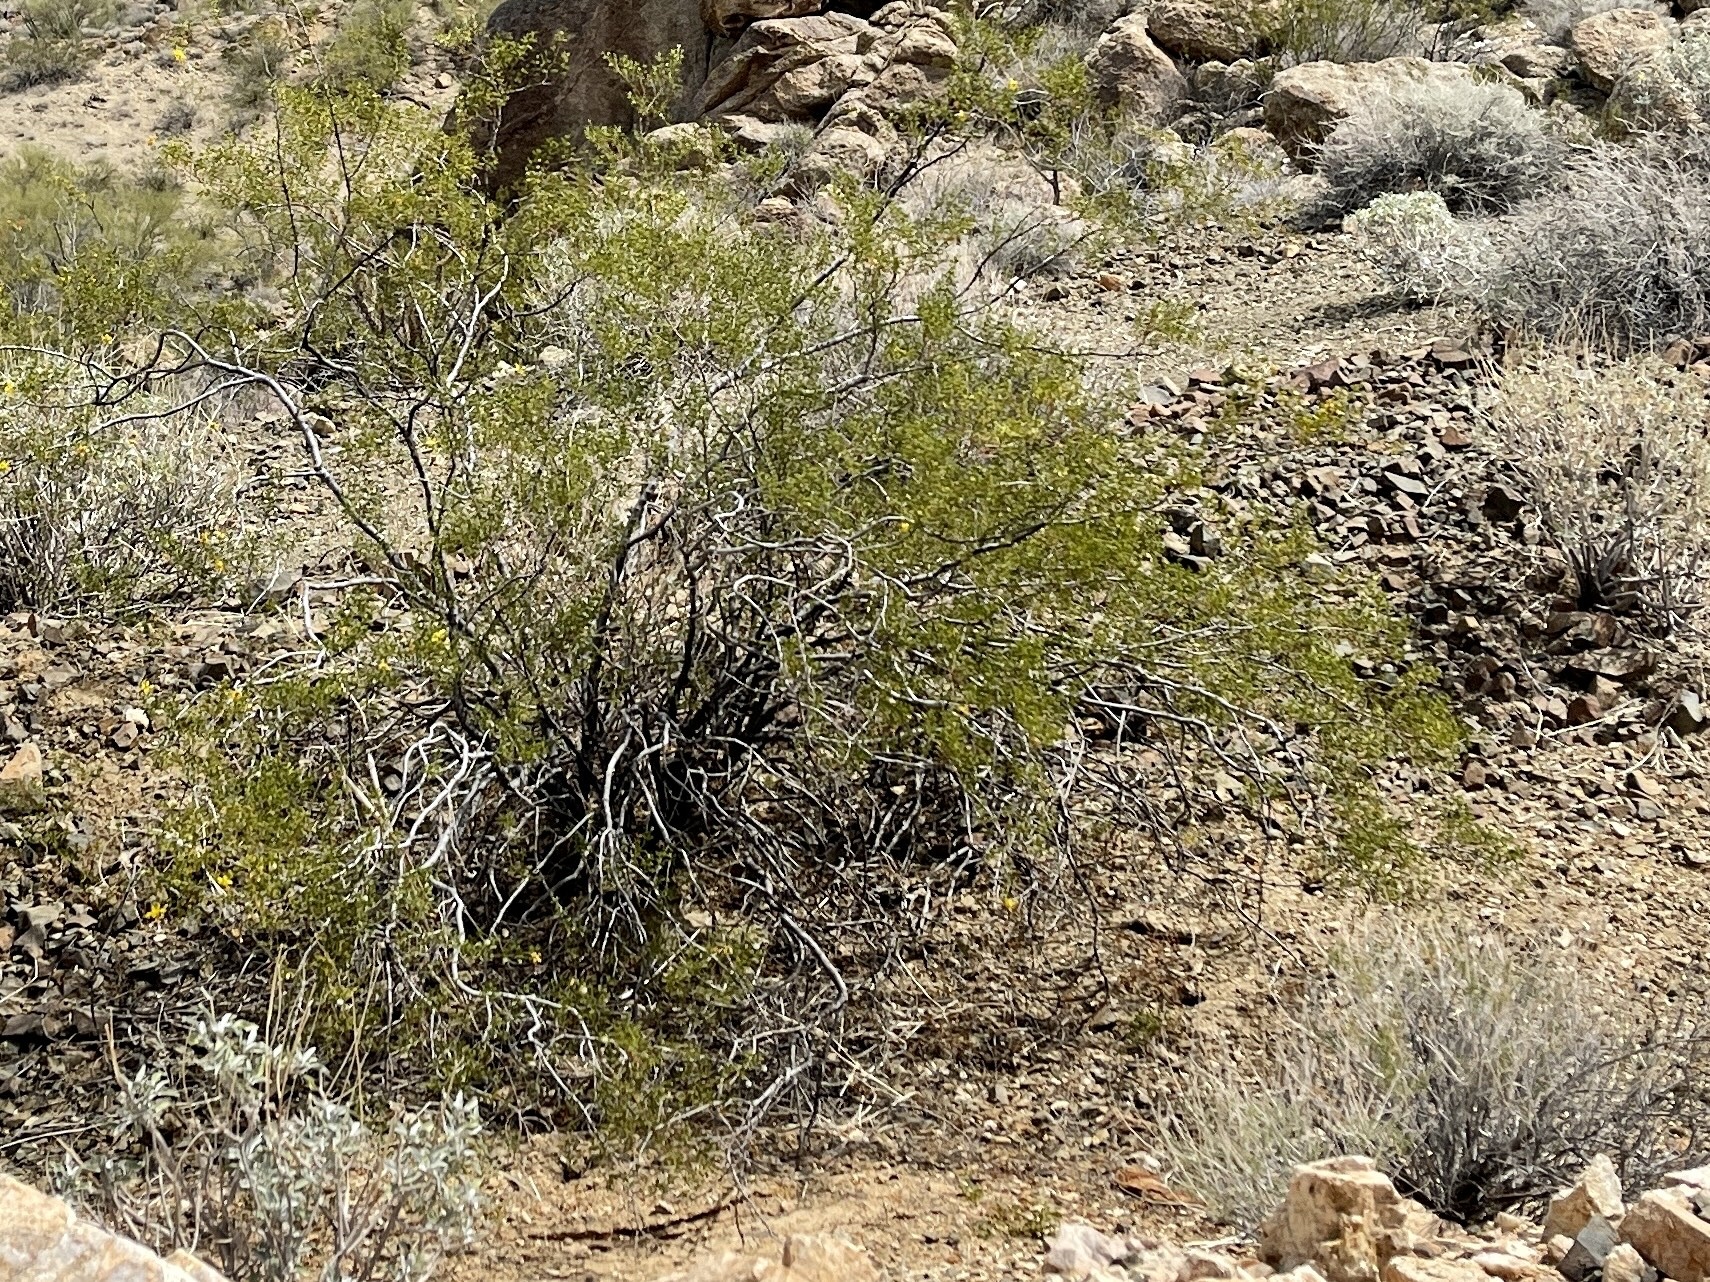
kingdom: Plantae
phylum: Tracheophyta
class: Magnoliopsida
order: Zygophyllales
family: Zygophyllaceae
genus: Larrea
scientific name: Larrea tridentata
